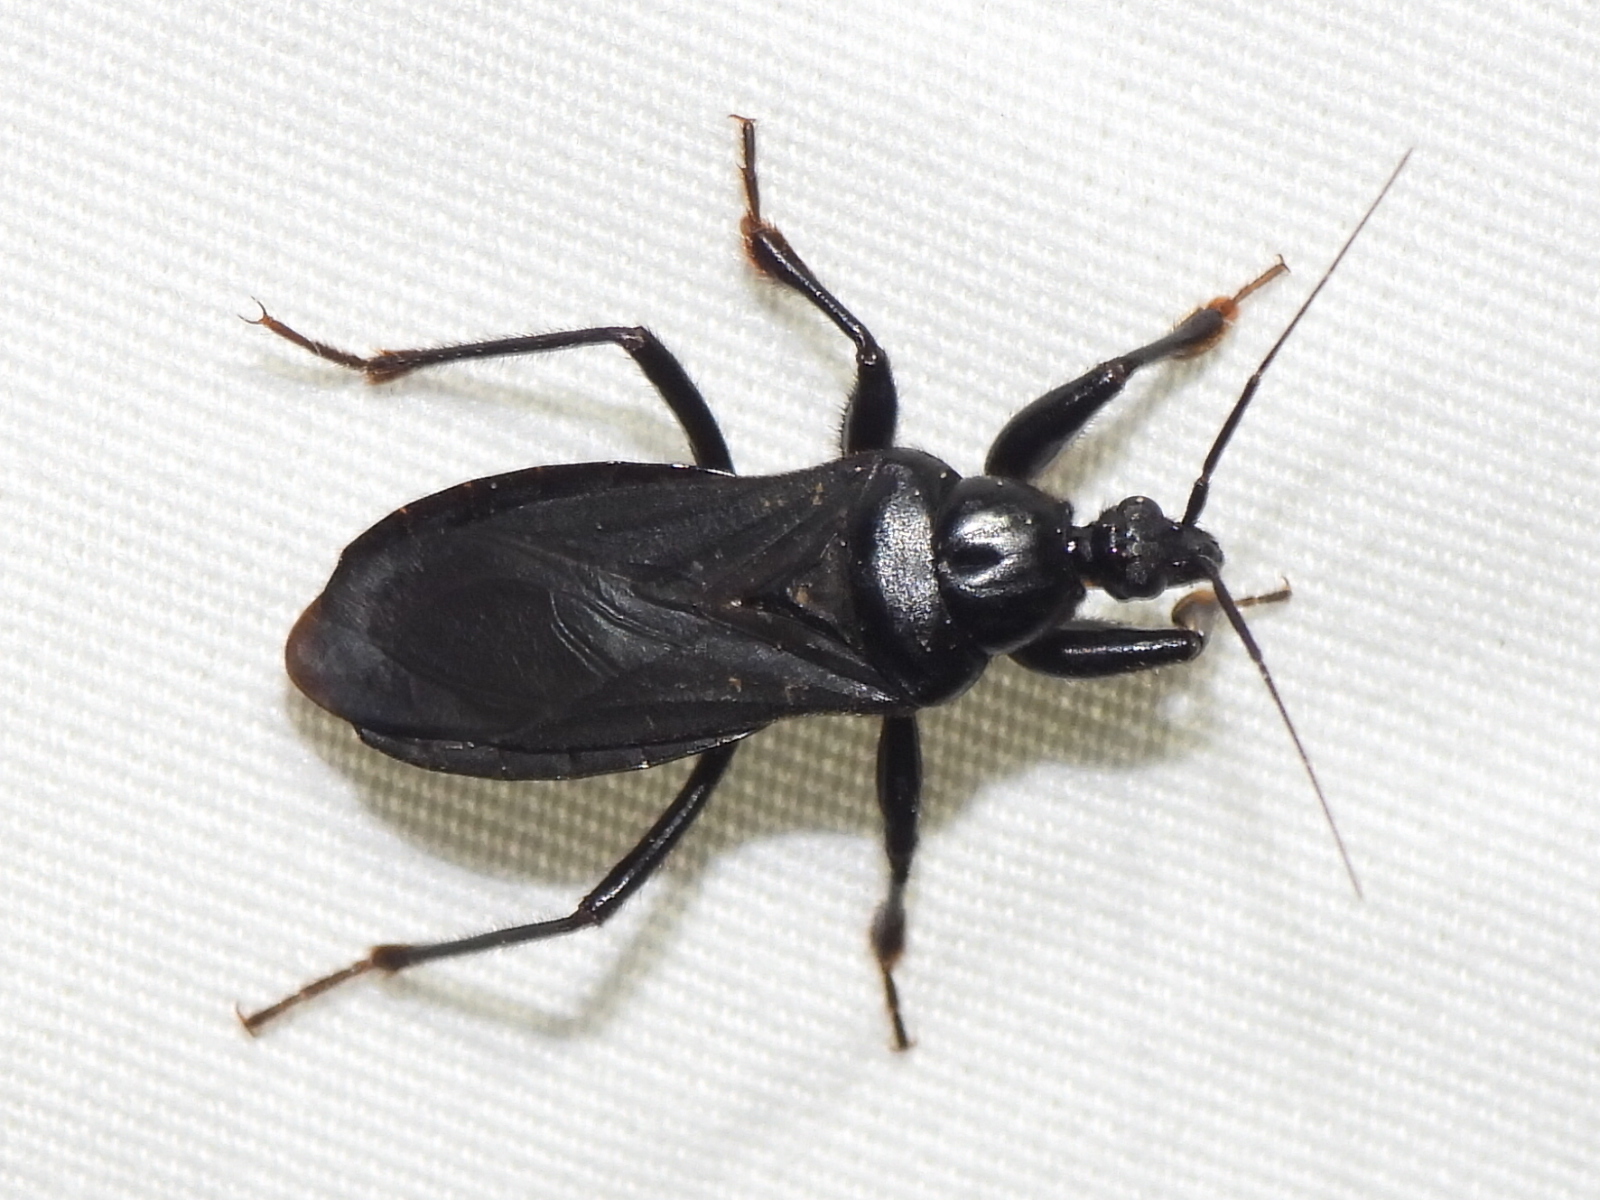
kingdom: Animalia
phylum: Arthropoda
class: Insecta
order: Hemiptera
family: Reduviidae
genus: Melanolestes
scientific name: Melanolestes picipes
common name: Assassin bug
